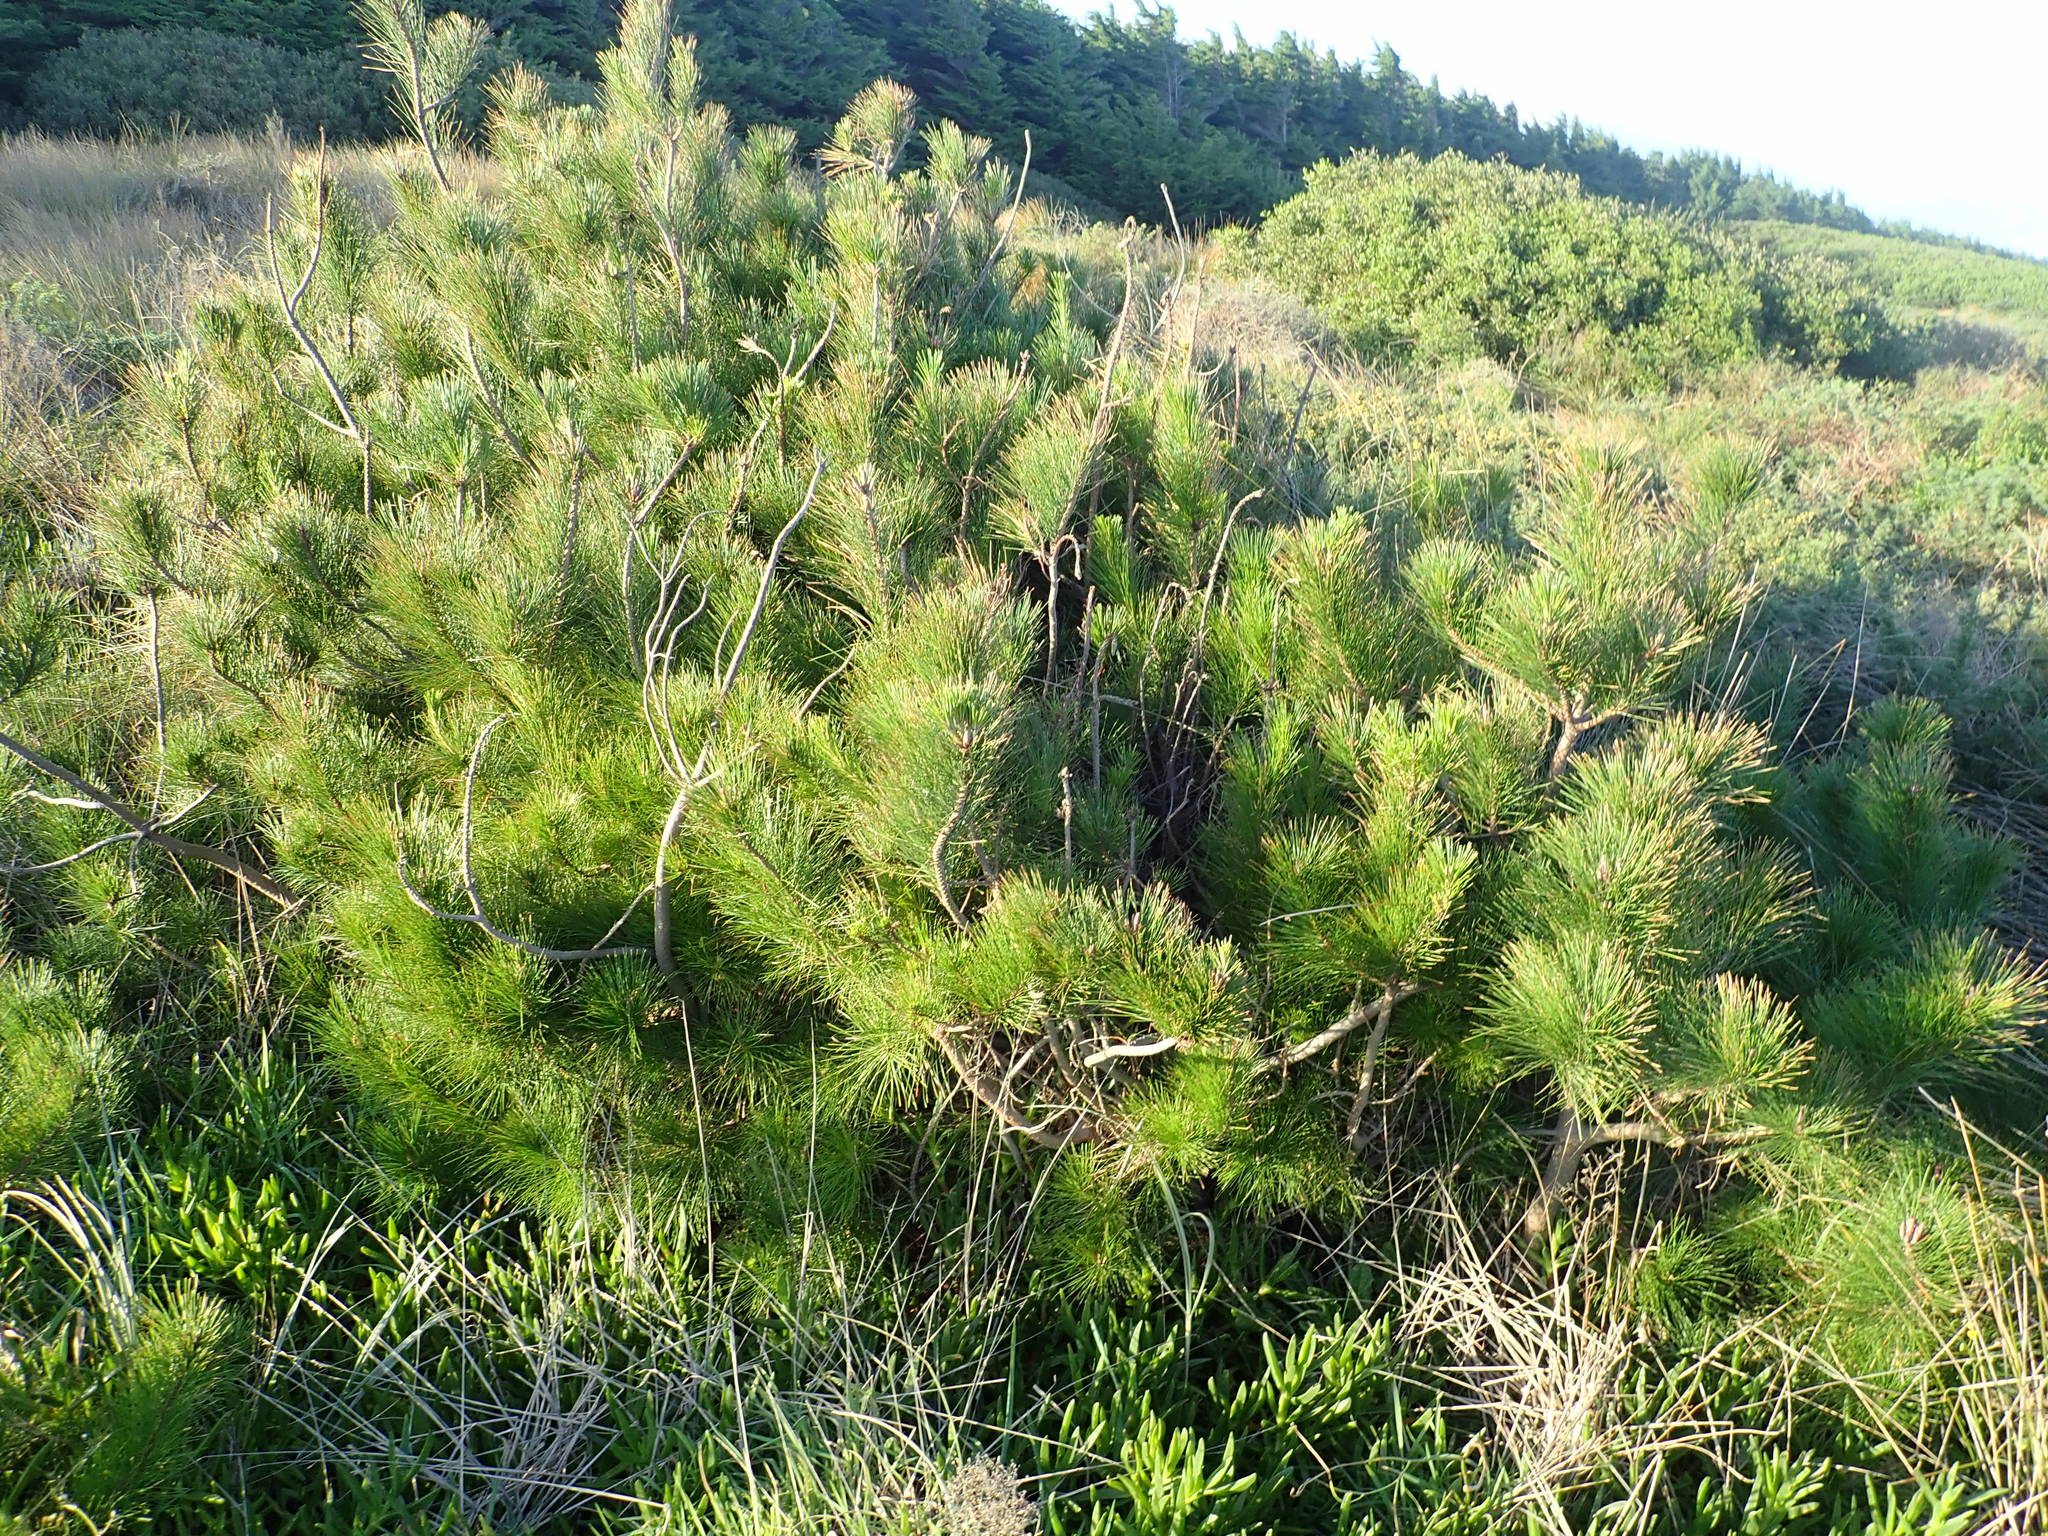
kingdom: Plantae
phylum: Tracheophyta
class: Pinopsida
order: Pinales
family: Pinaceae
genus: Pinus
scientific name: Pinus radiata
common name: Monterey pine
